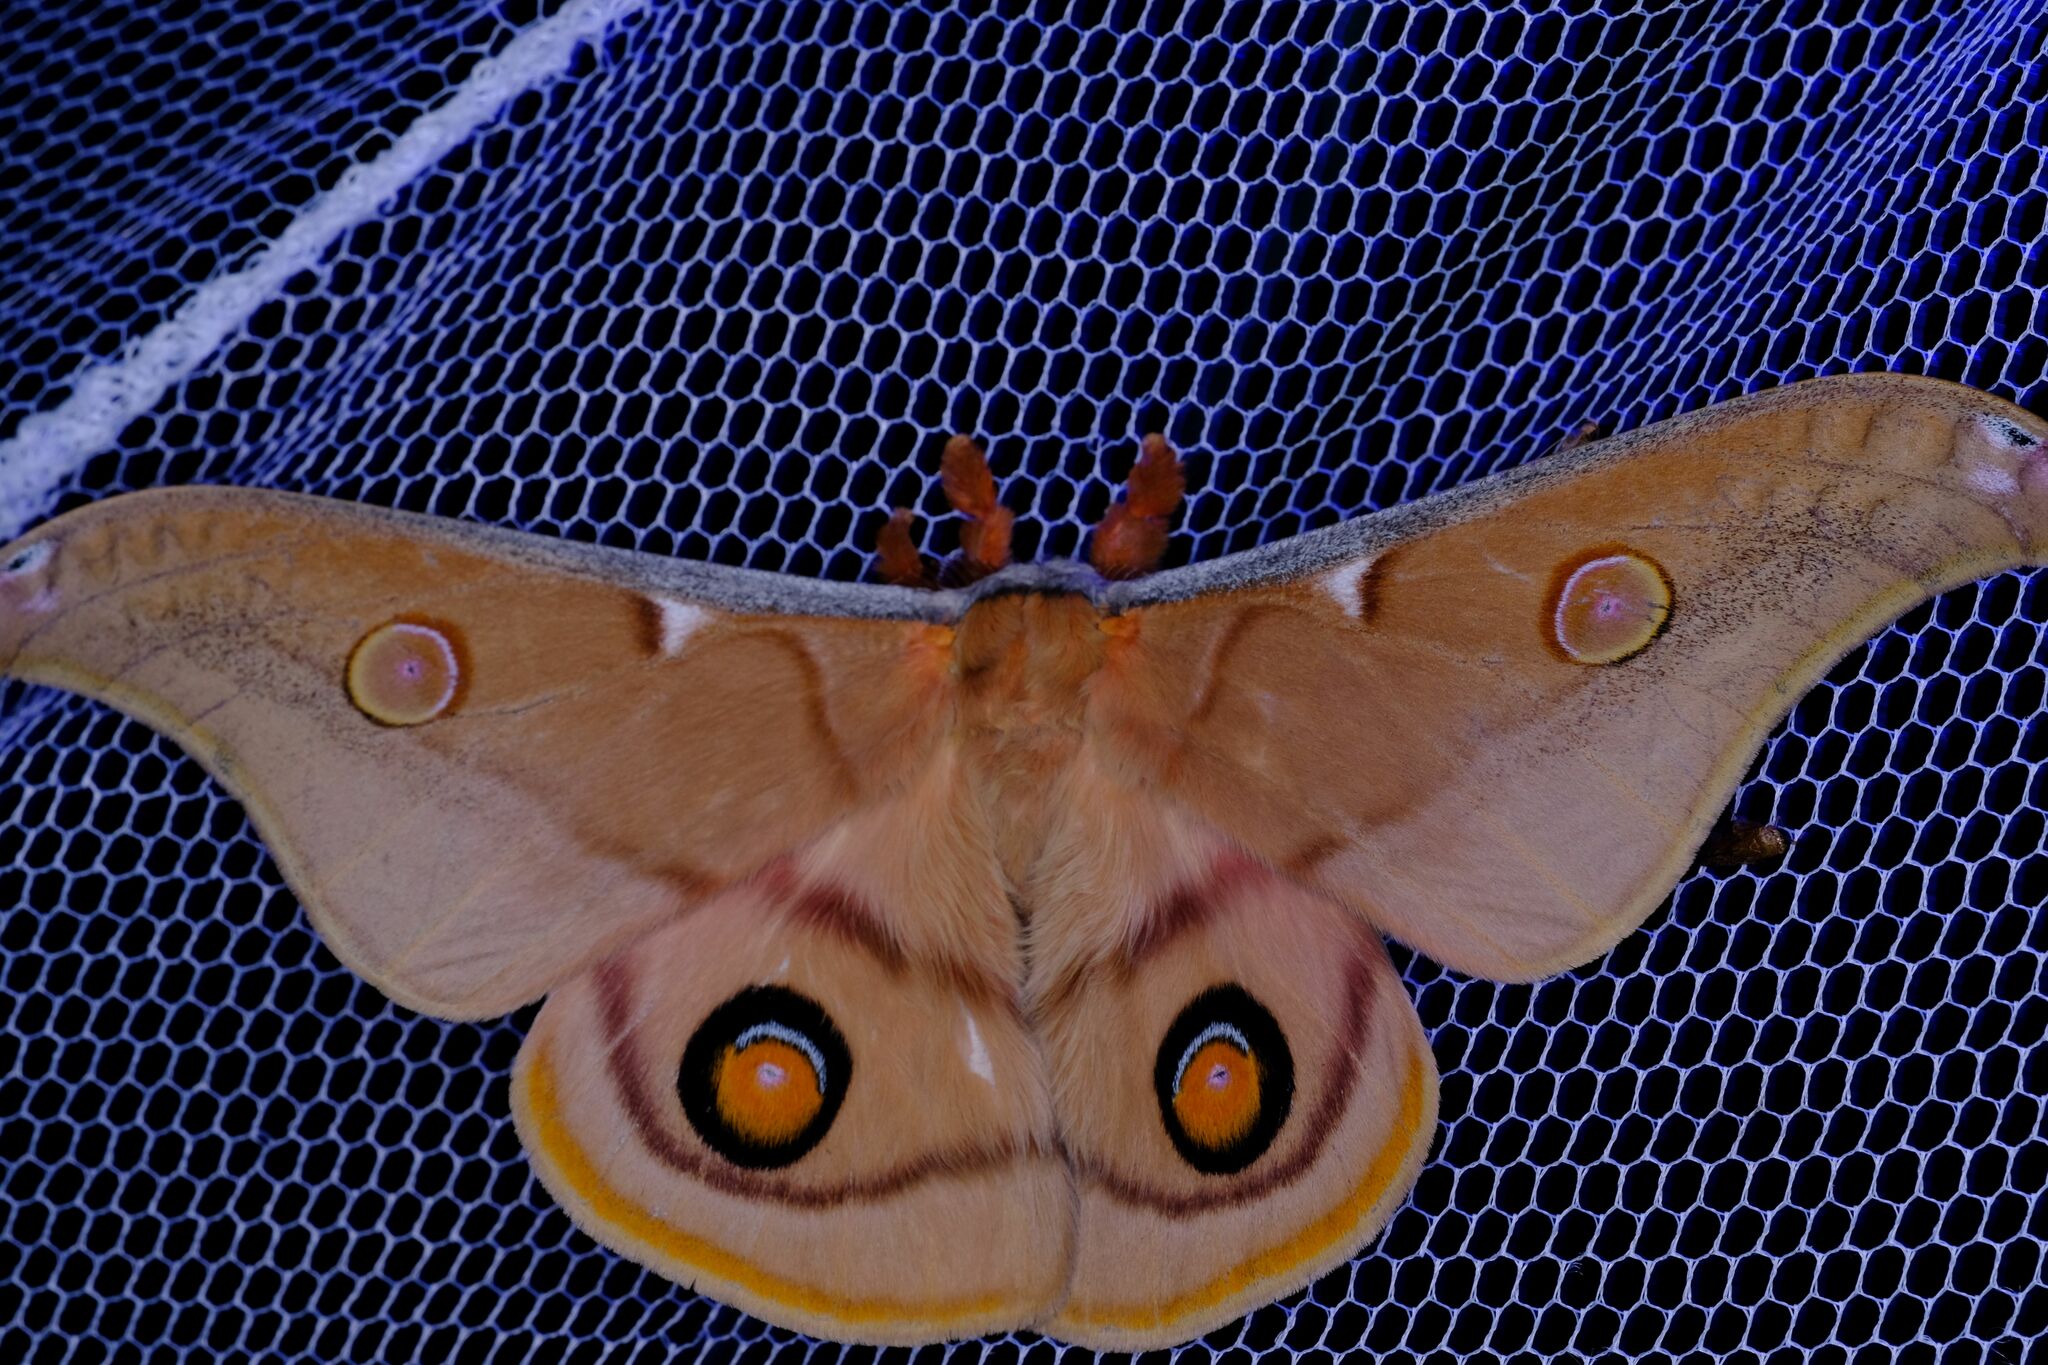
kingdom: Animalia
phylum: Arthropoda
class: Insecta
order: Lepidoptera
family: Saturniidae
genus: Opodiphthera
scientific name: Opodiphthera
